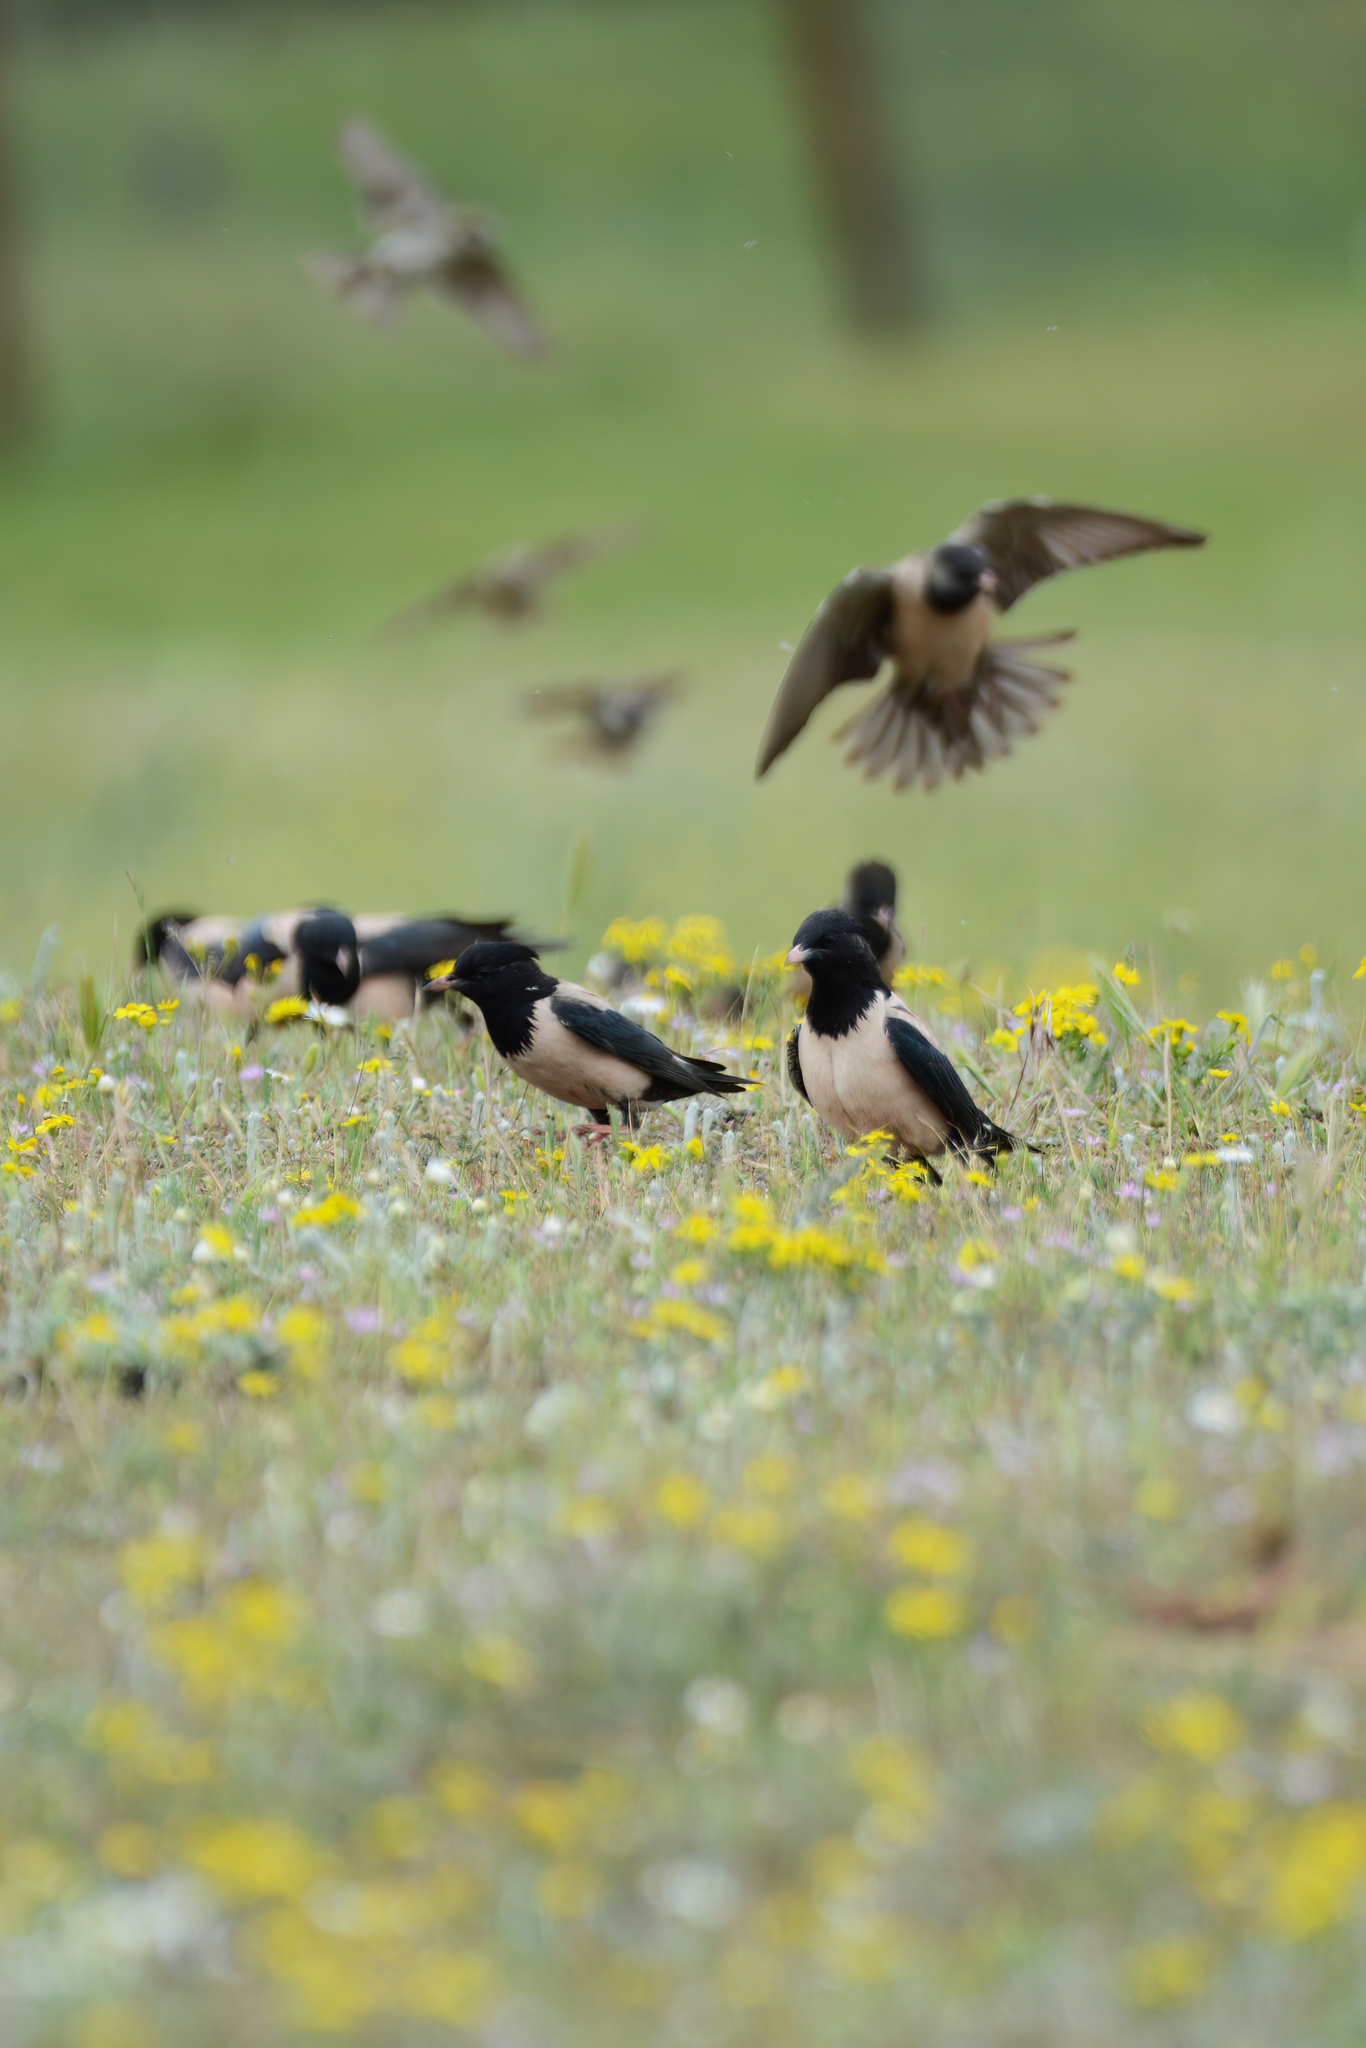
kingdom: Animalia
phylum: Chordata
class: Aves
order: Passeriformes
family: Sturnidae
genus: Pastor
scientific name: Pastor roseus
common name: Rosy starling
